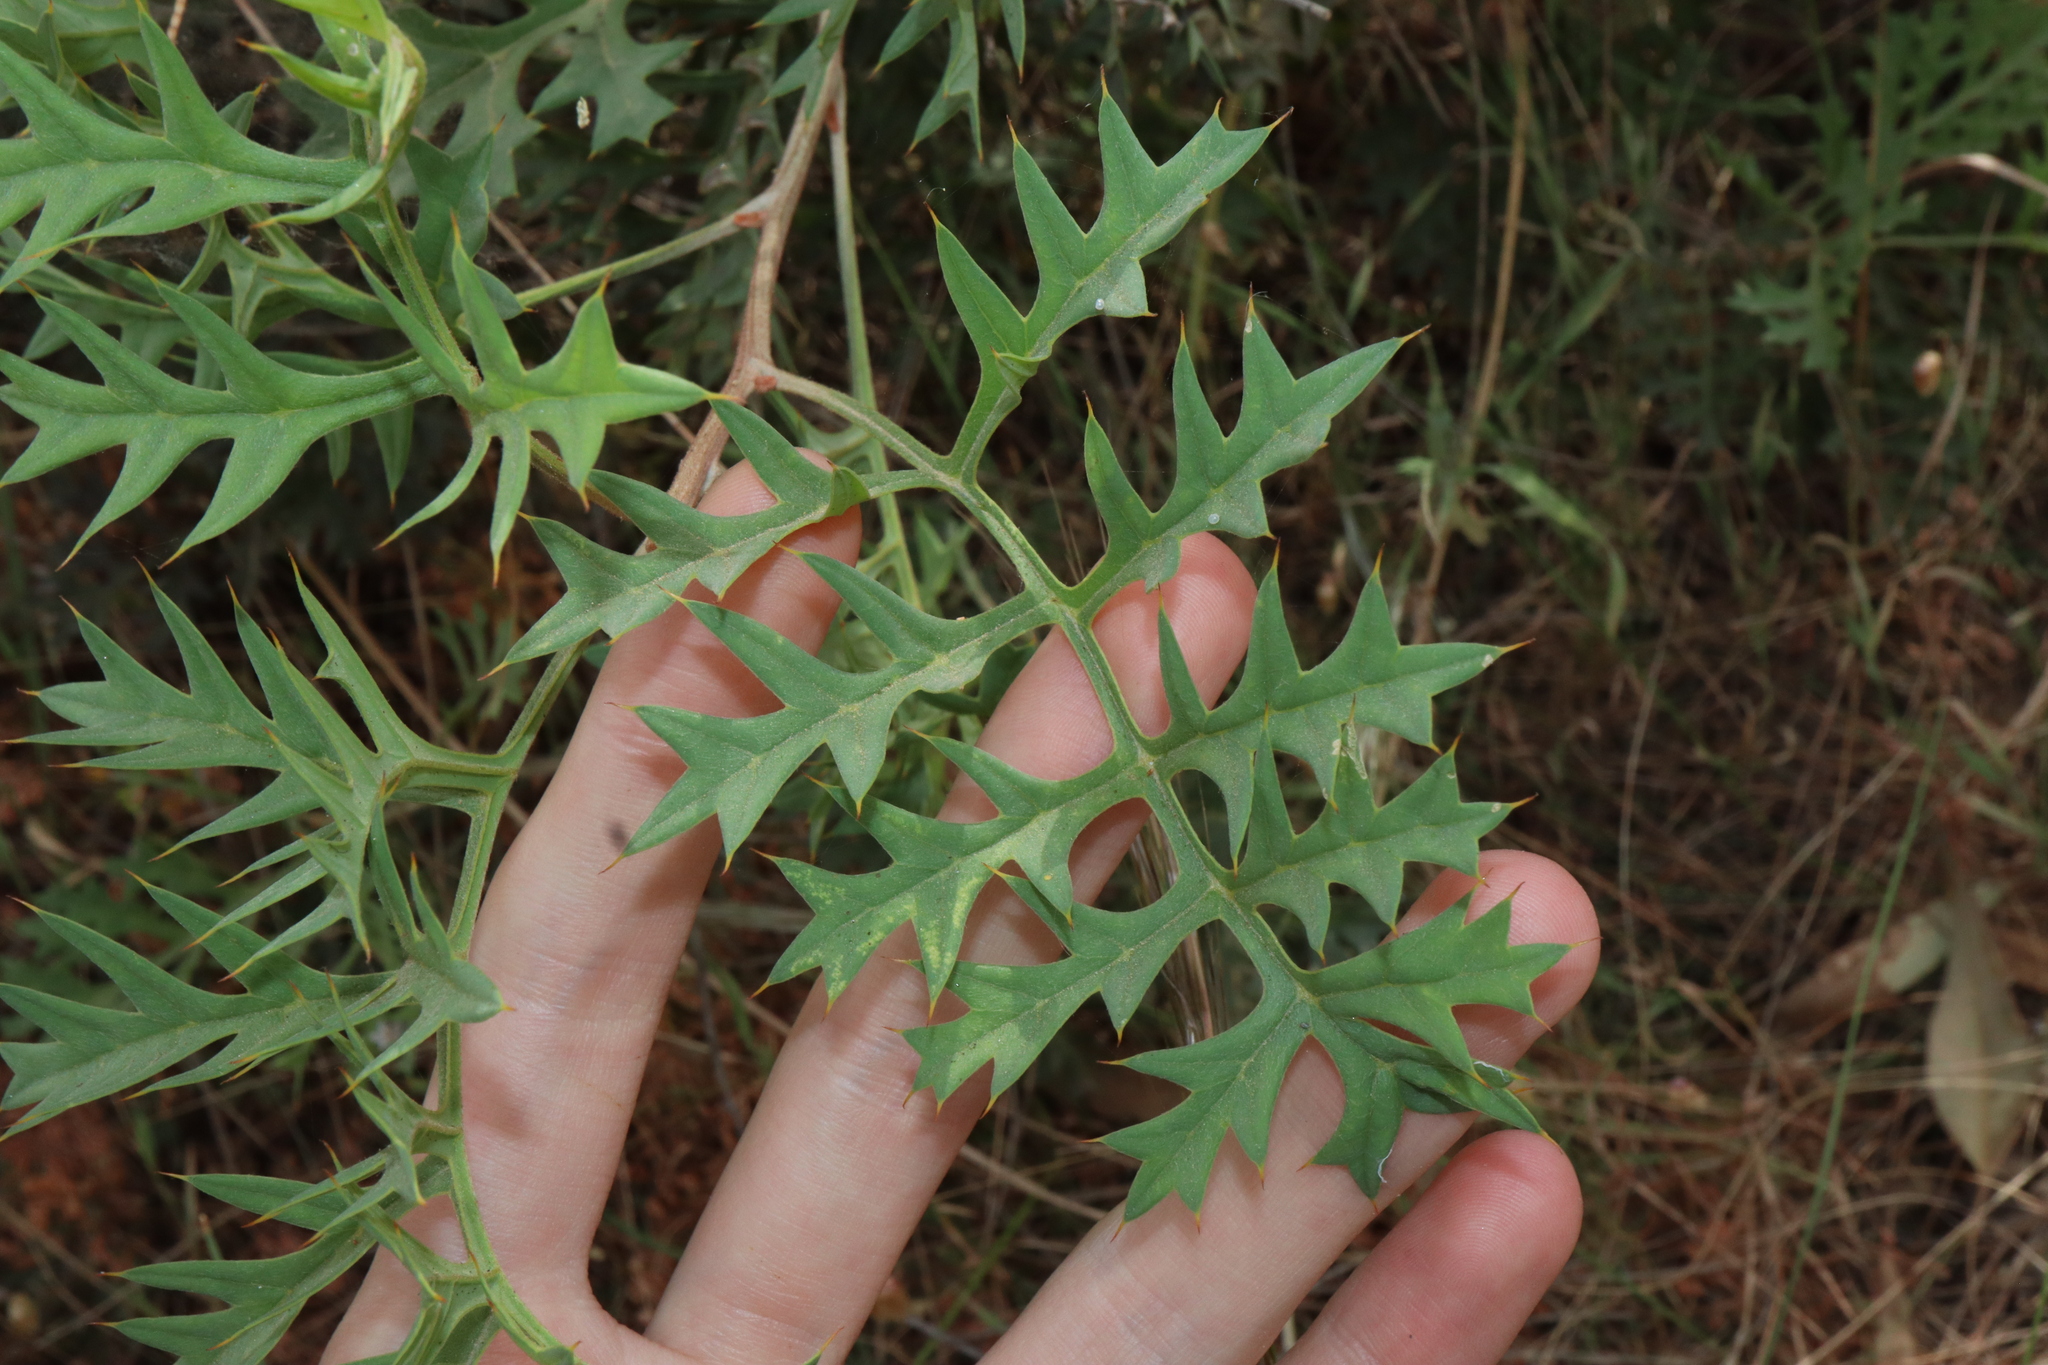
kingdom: Plantae
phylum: Tracheophyta
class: Magnoliopsida
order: Proteales
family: Proteaceae
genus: Grevillea
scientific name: Grevillea bipinnatifida
